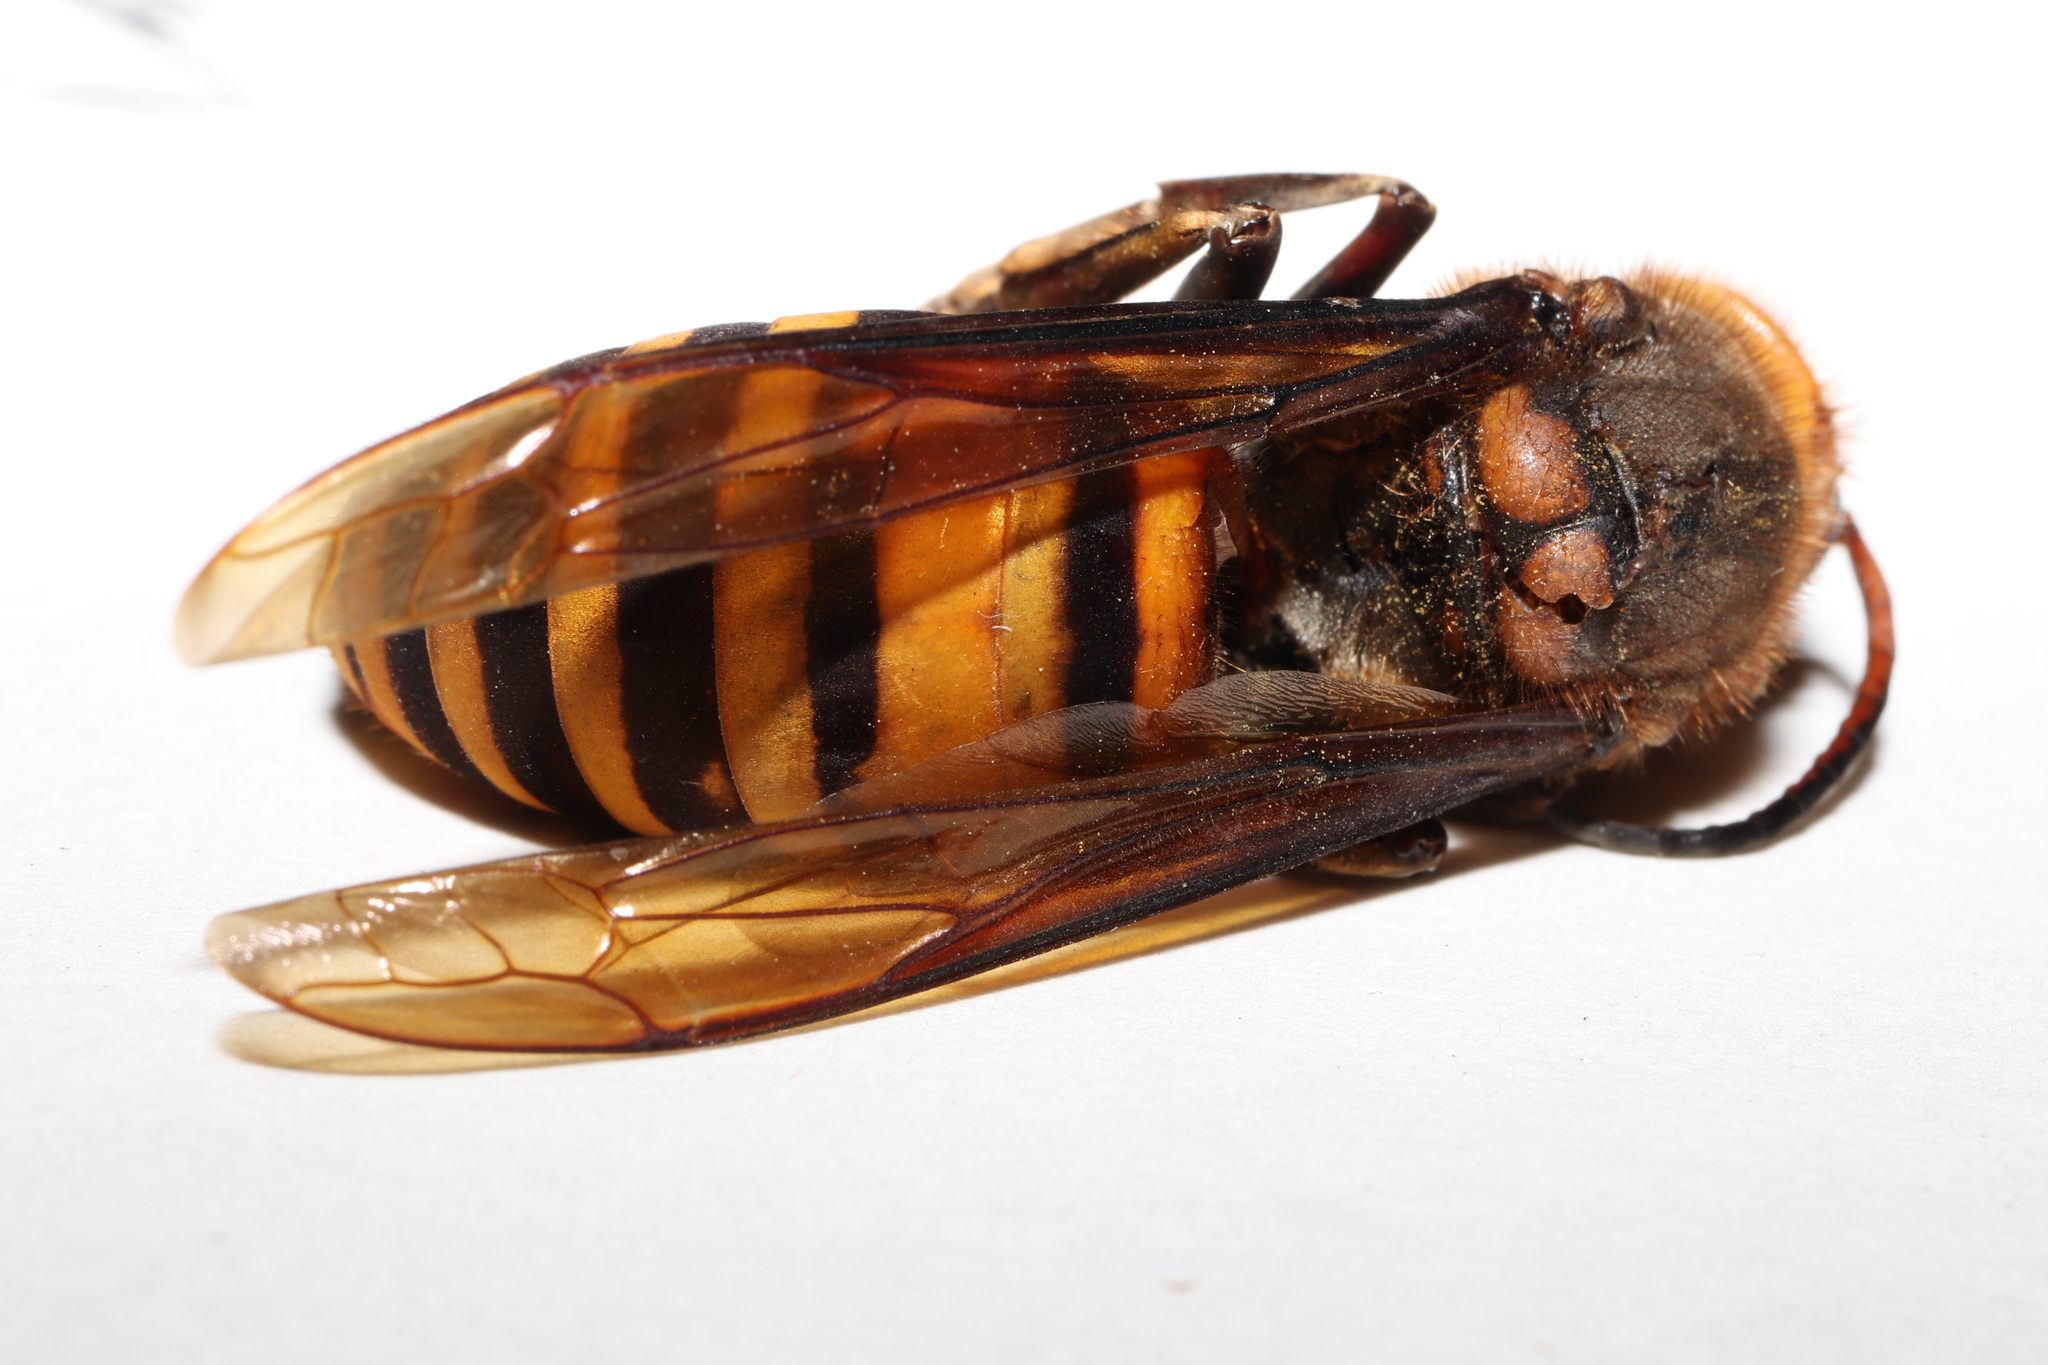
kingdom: Animalia
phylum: Arthropoda
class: Insecta
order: Hymenoptera
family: Vespidae
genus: Vespa
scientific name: Vespa mandarinia
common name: Asian giant hornet
